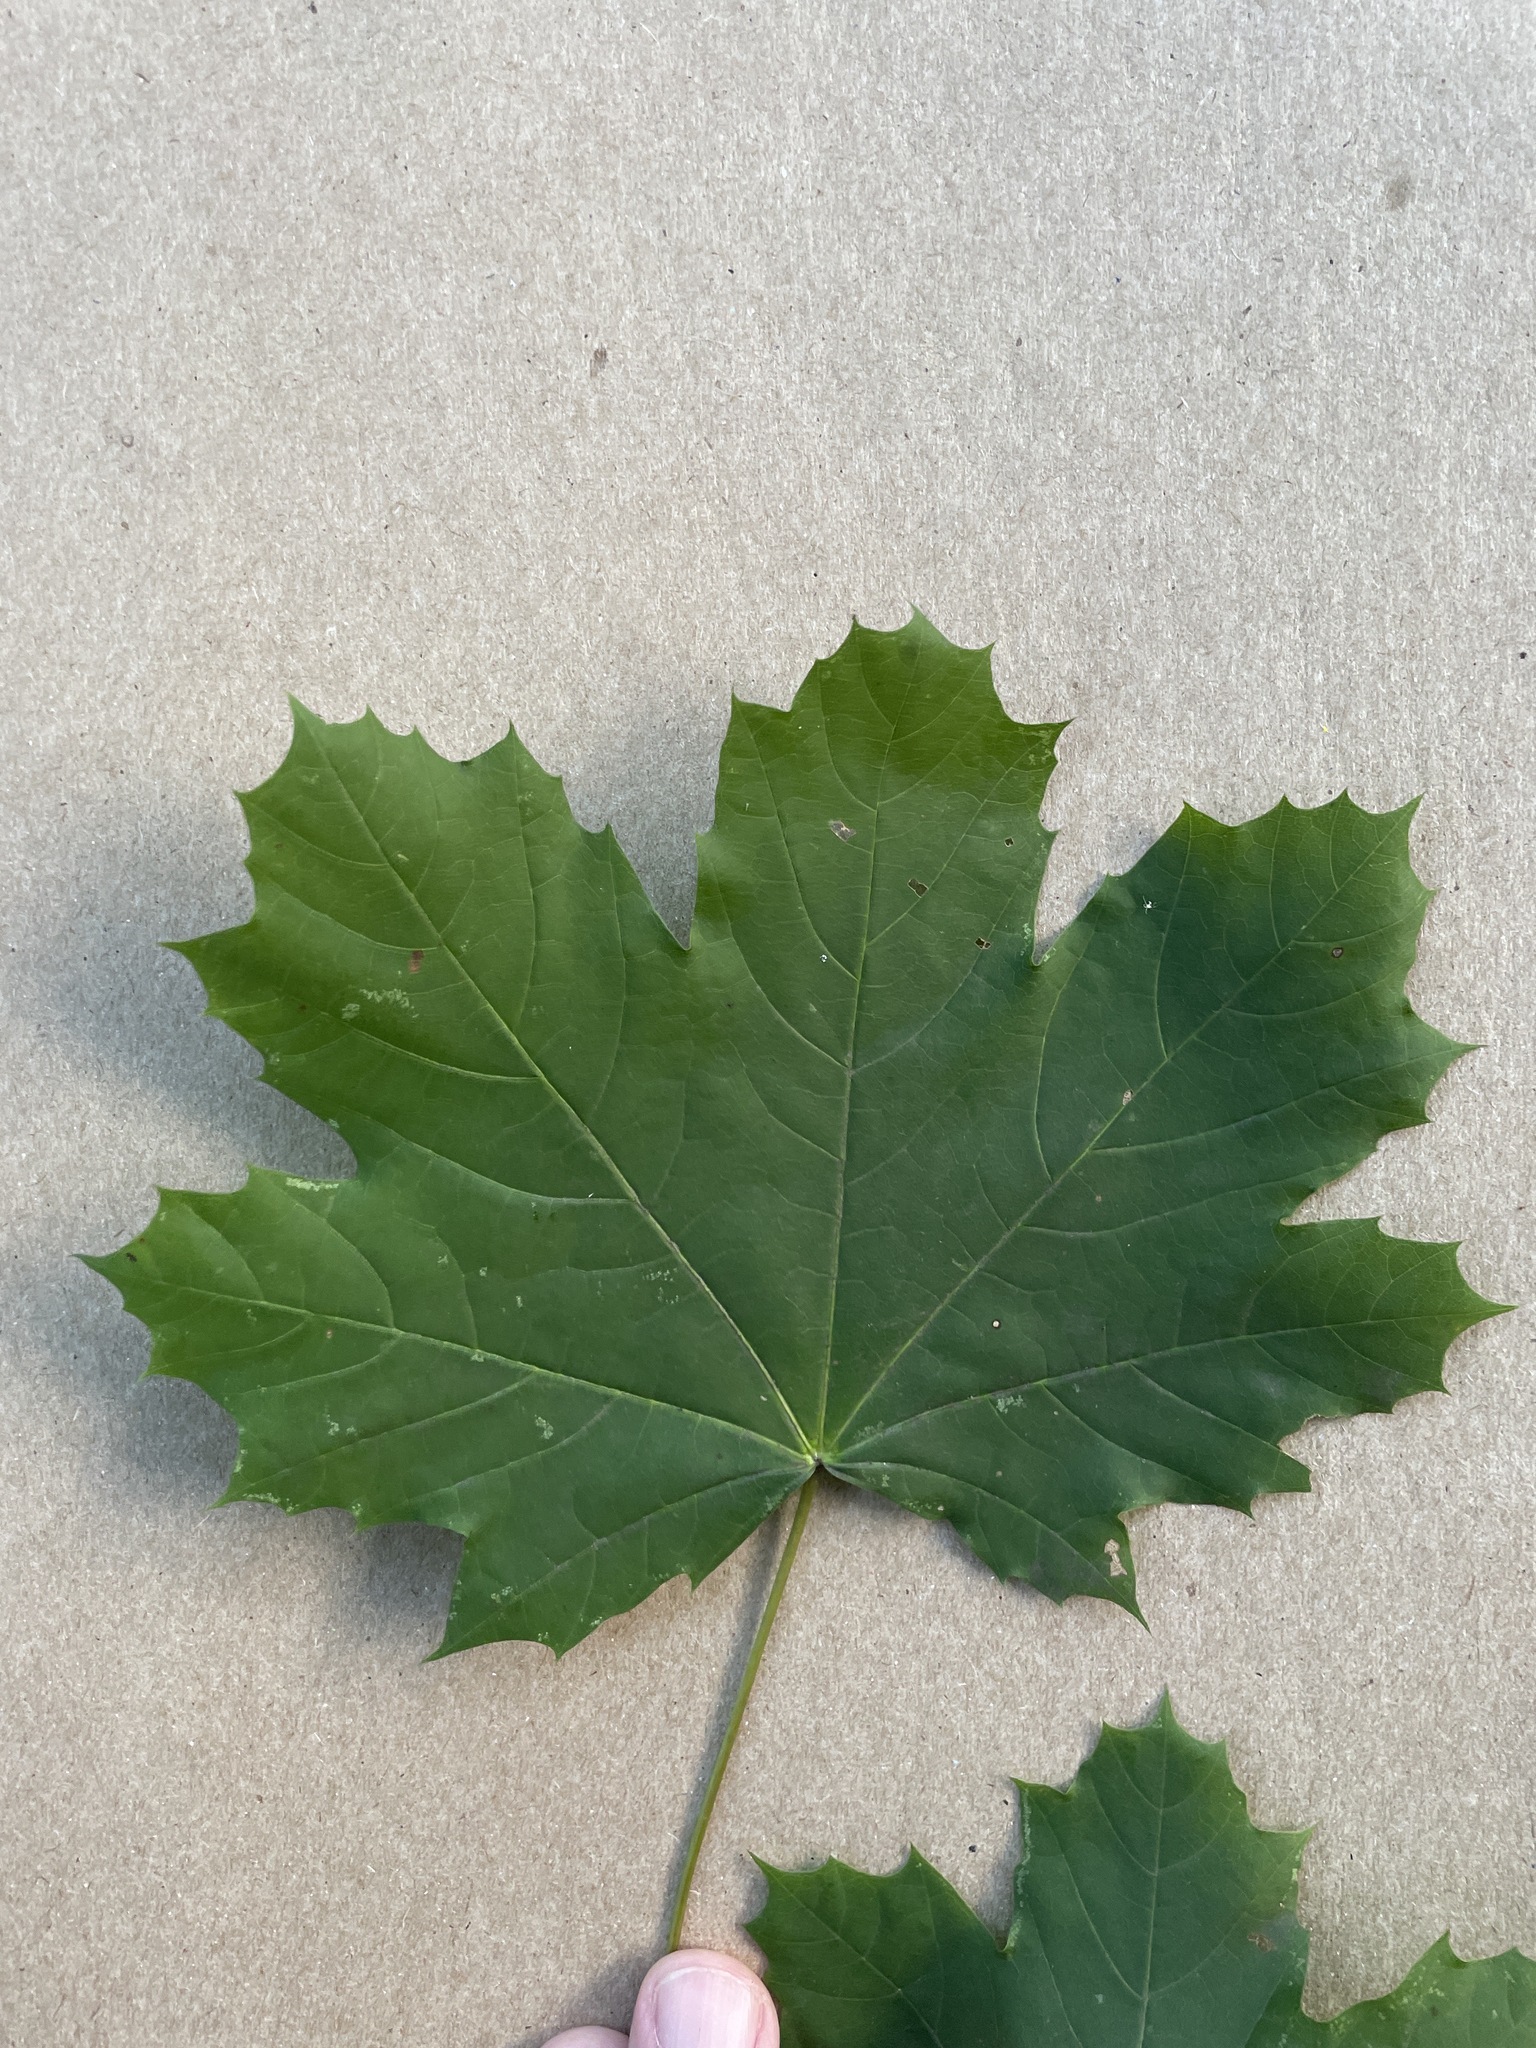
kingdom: Plantae
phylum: Tracheophyta
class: Magnoliopsida
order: Sapindales
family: Sapindaceae
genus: Acer
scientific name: Acer platanoides
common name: Norway maple
